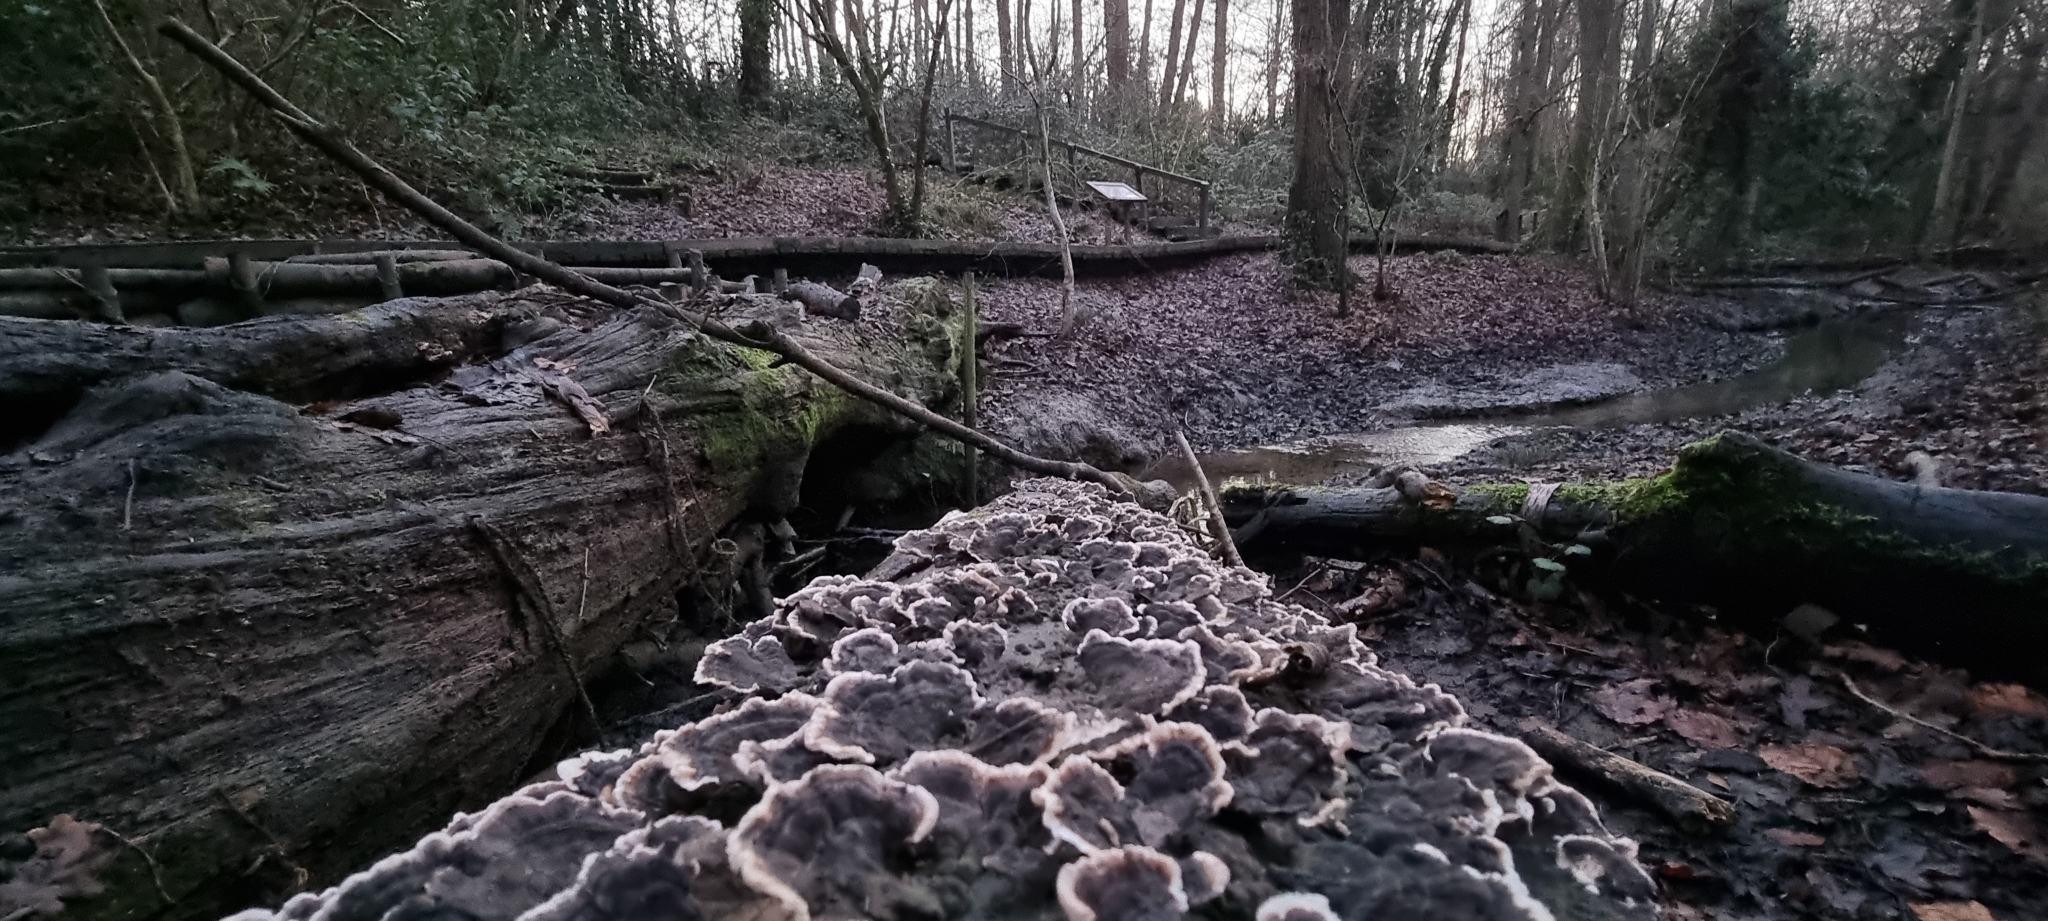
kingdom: Fungi
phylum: Basidiomycota
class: Agaricomycetes
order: Polyporales
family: Polyporaceae
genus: Trametes
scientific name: Trametes versicolor
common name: Turkeytail
